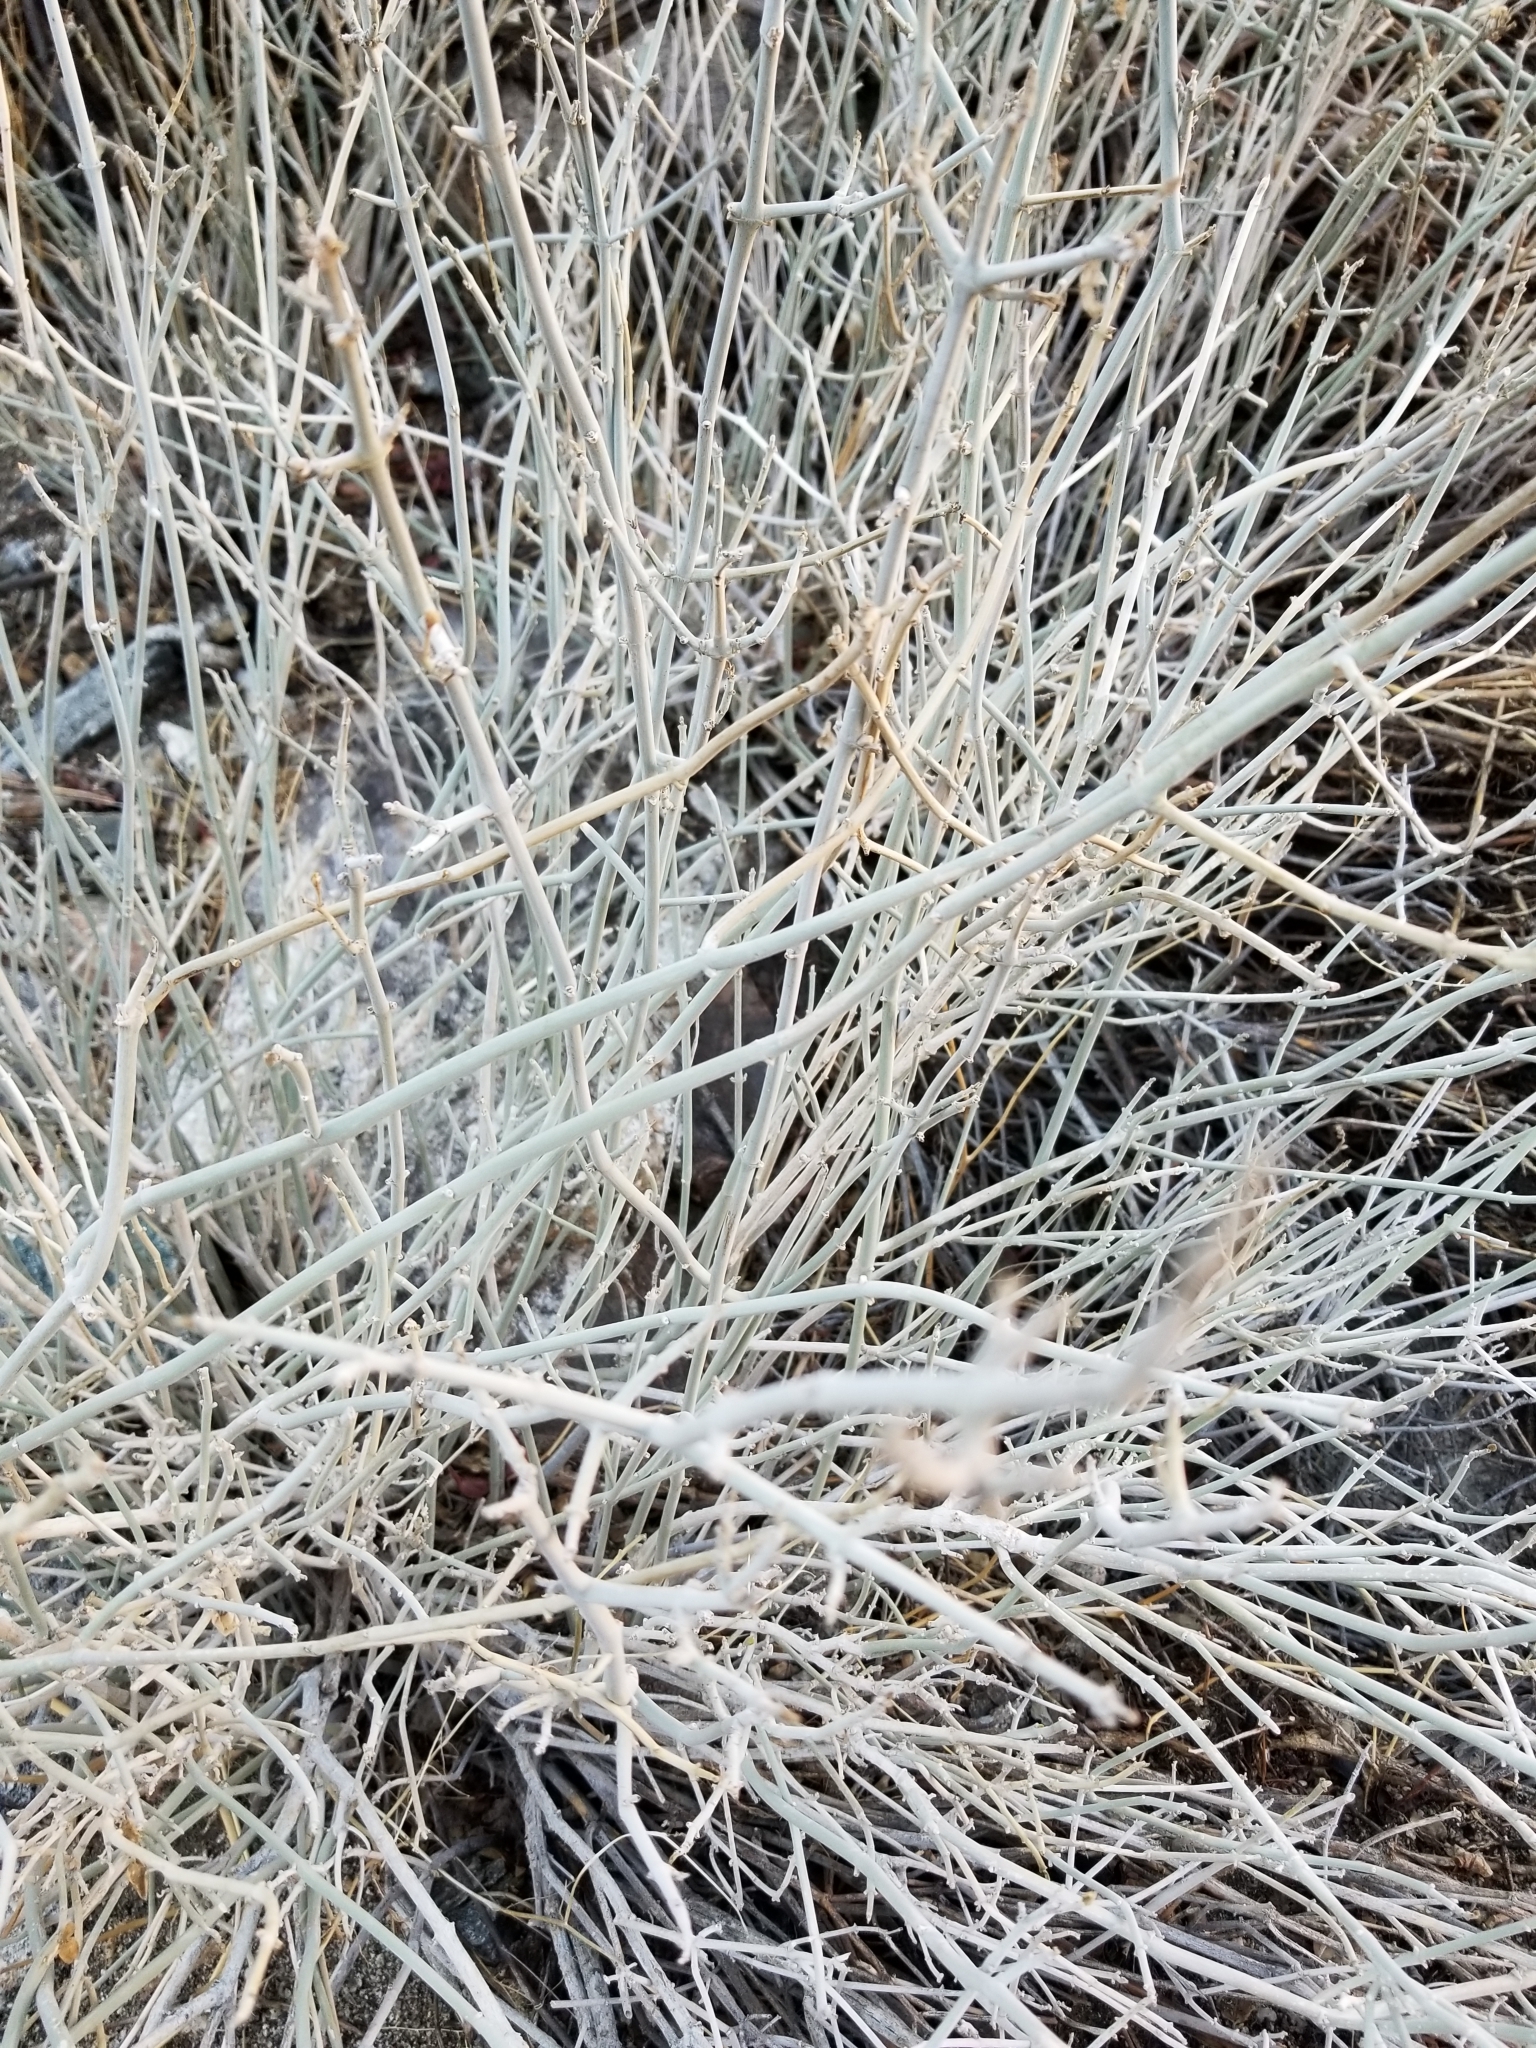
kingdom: Plantae
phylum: Tracheophyta
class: Magnoliopsida
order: Lamiales
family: Acanthaceae
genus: Justicia
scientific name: Justicia californica
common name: Chuparosa-honeysuckle
